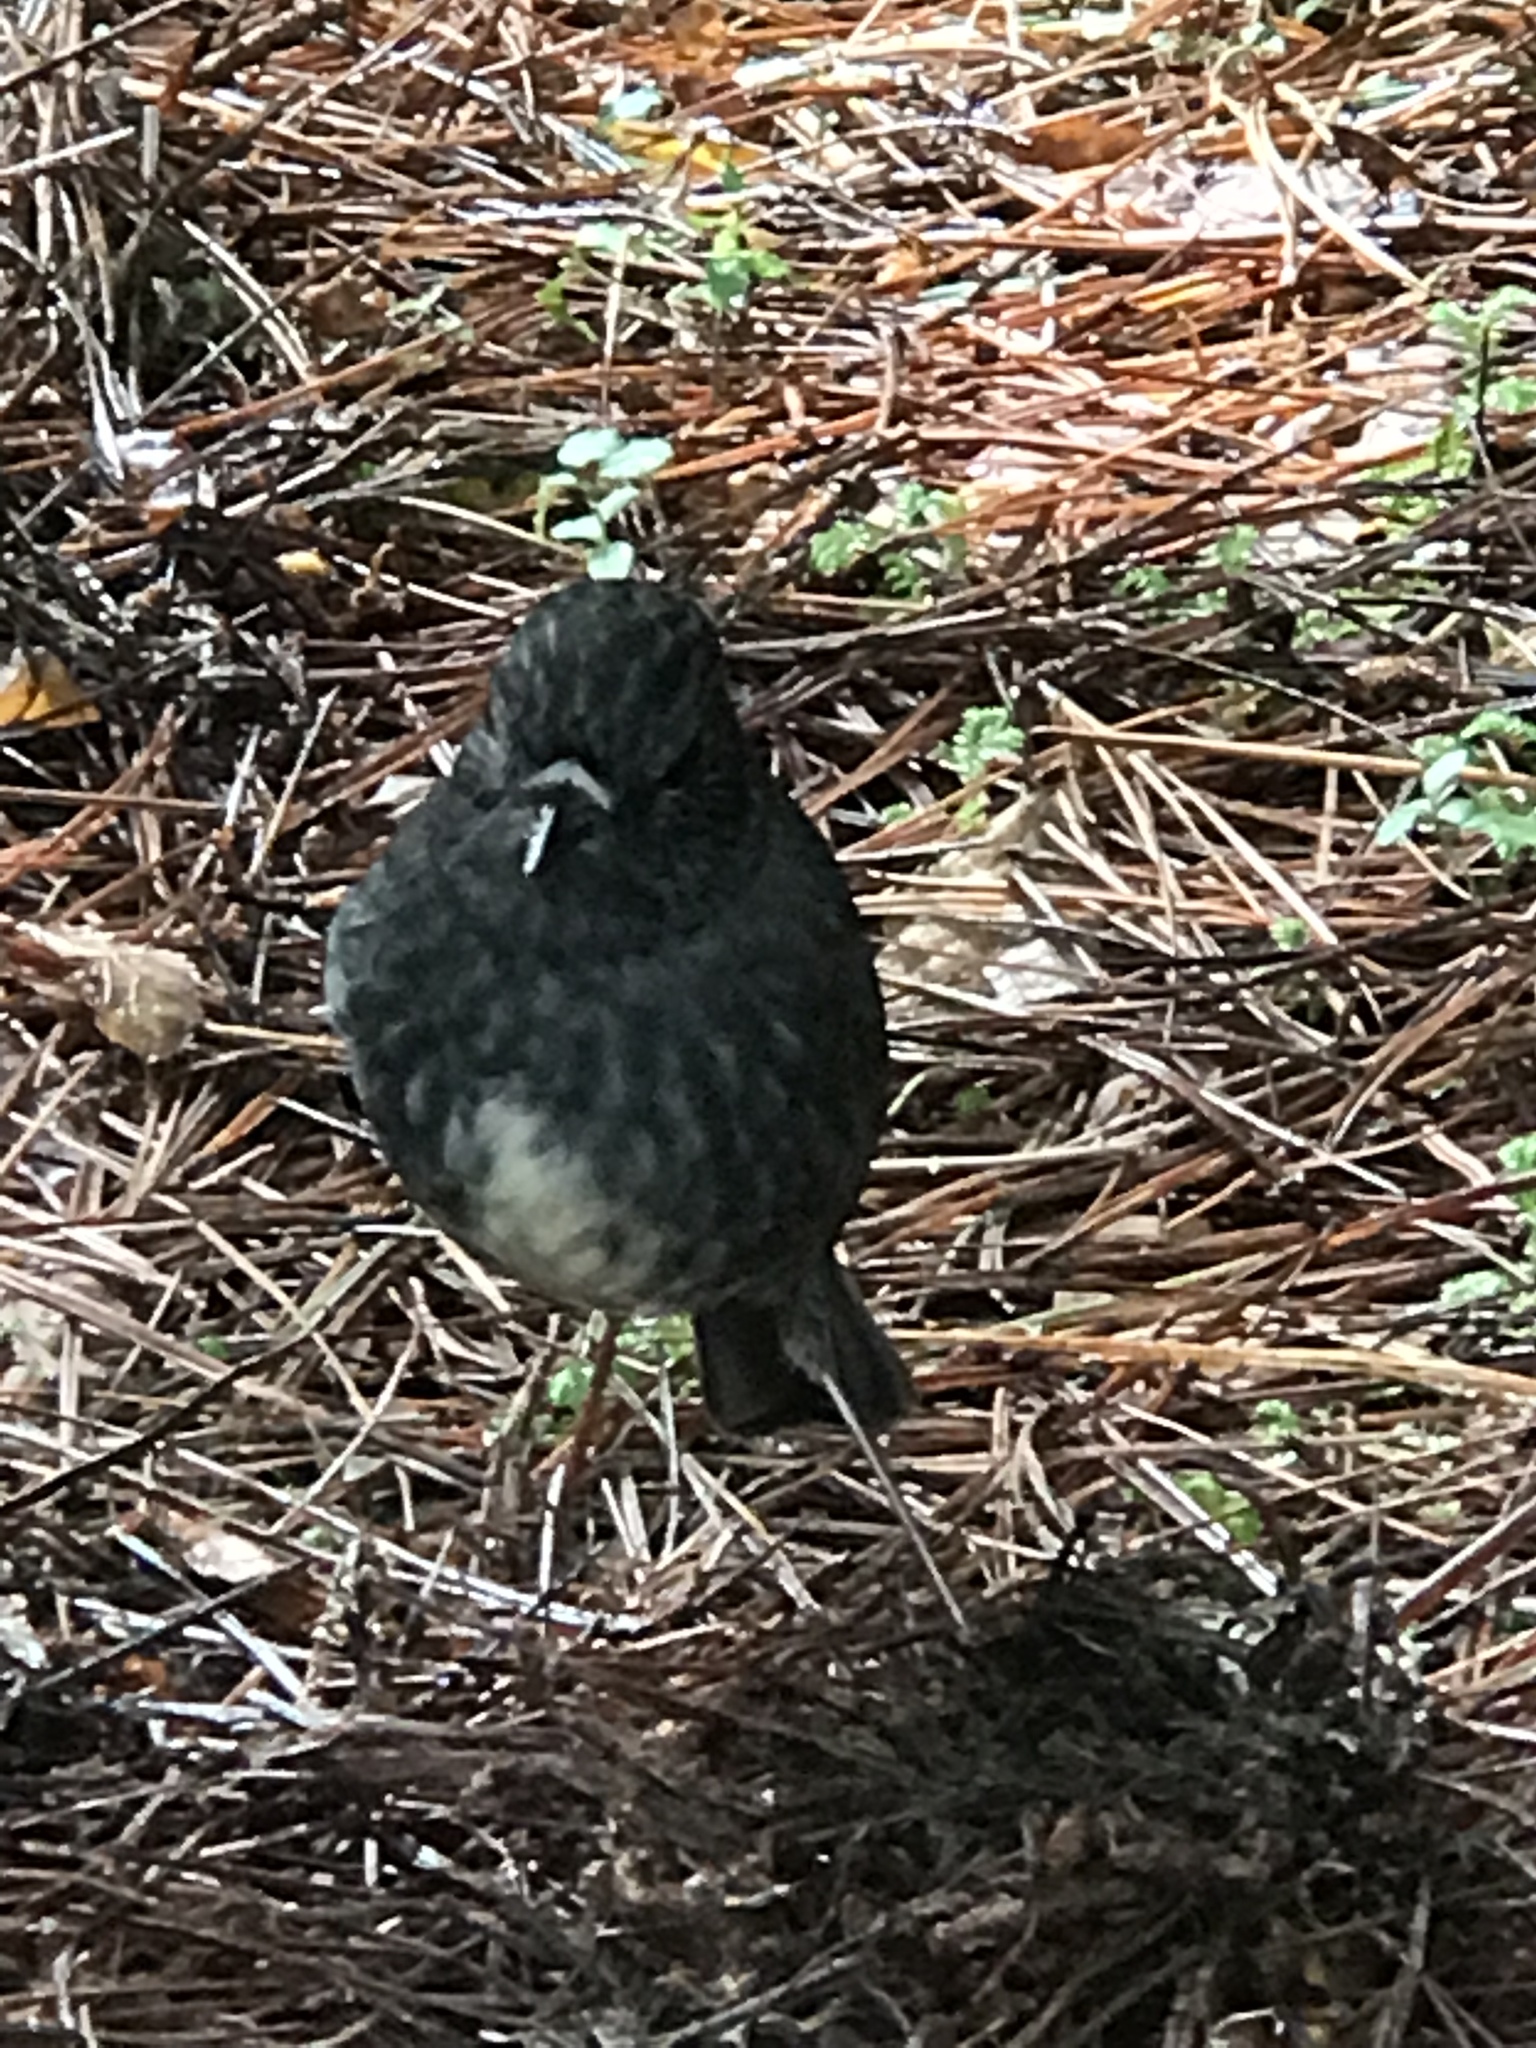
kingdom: Animalia
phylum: Chordata
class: Aves
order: Passeriformes
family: Petroicidae
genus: Petroica
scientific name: Petroica australis
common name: New zealand robin
